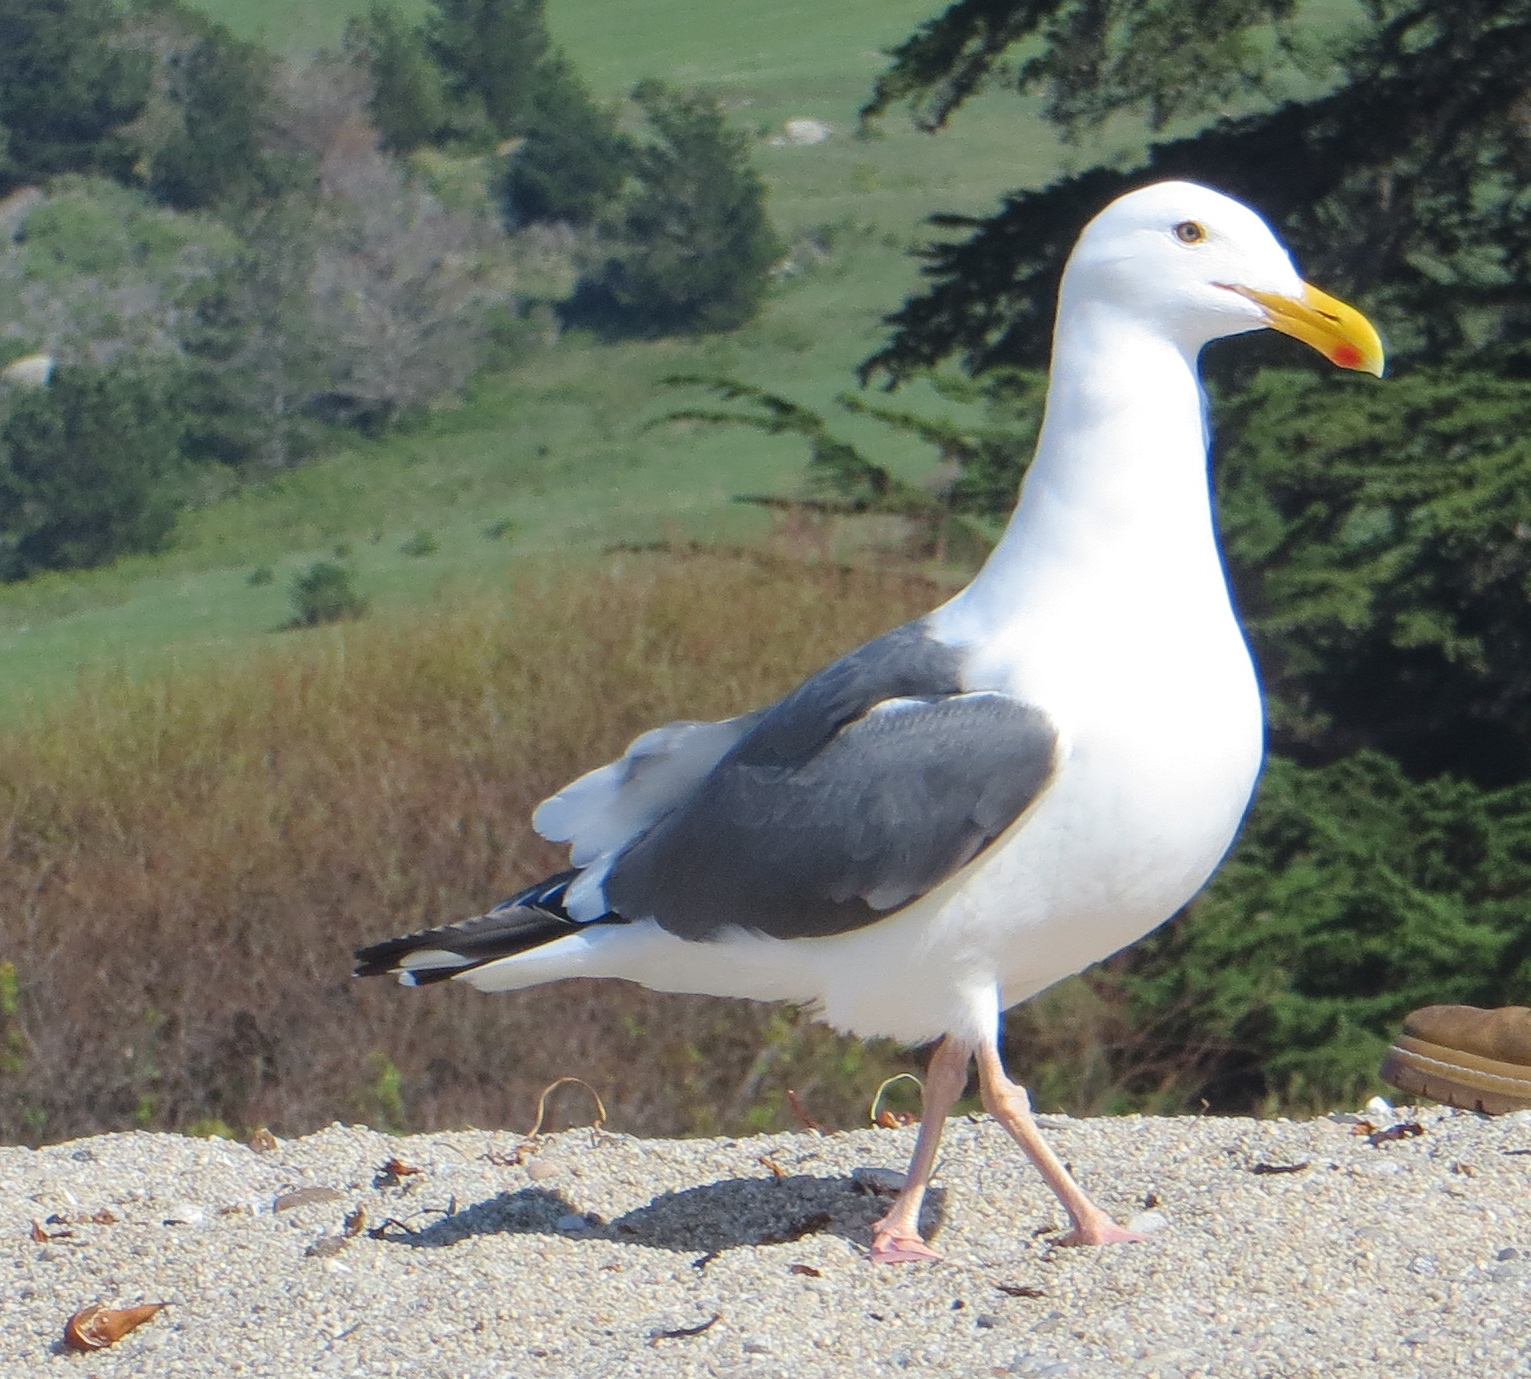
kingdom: Animalia
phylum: Chordata
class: Aves
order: Charadriiformes
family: Laridae
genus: Larus
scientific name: Larus occidentalis
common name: Western gull
